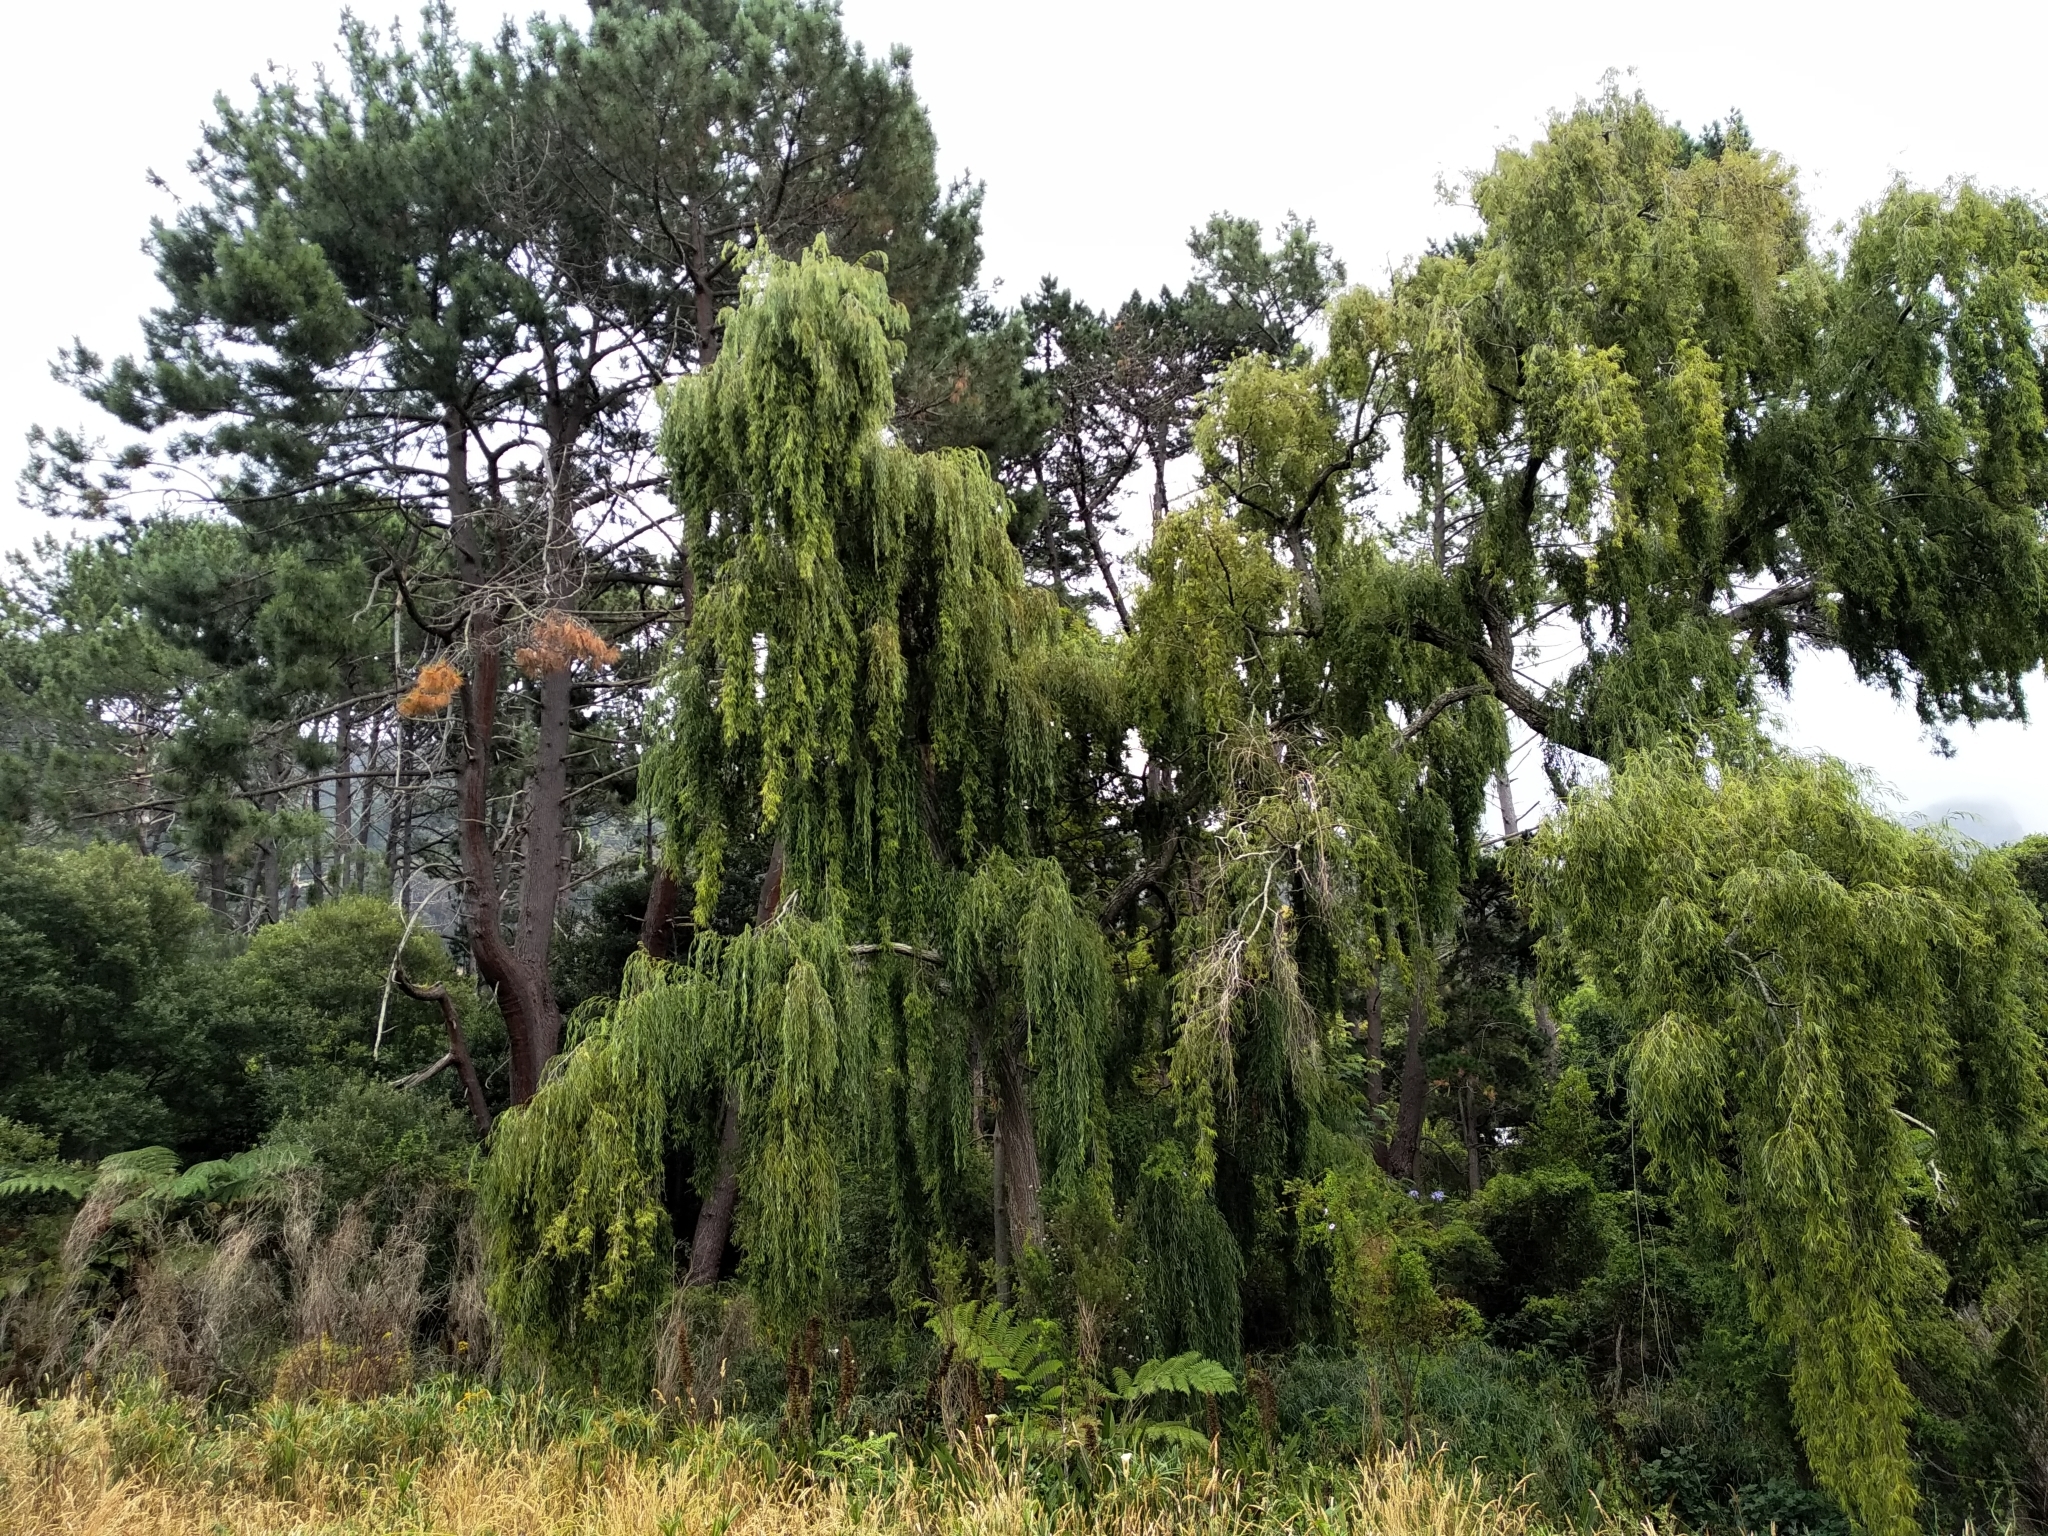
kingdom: Plantae
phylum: Tracheophyta
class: Magnoliopsida
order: Malpighiales
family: Salicaceae
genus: Salix
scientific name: Salix babylonica
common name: Weeping willow
